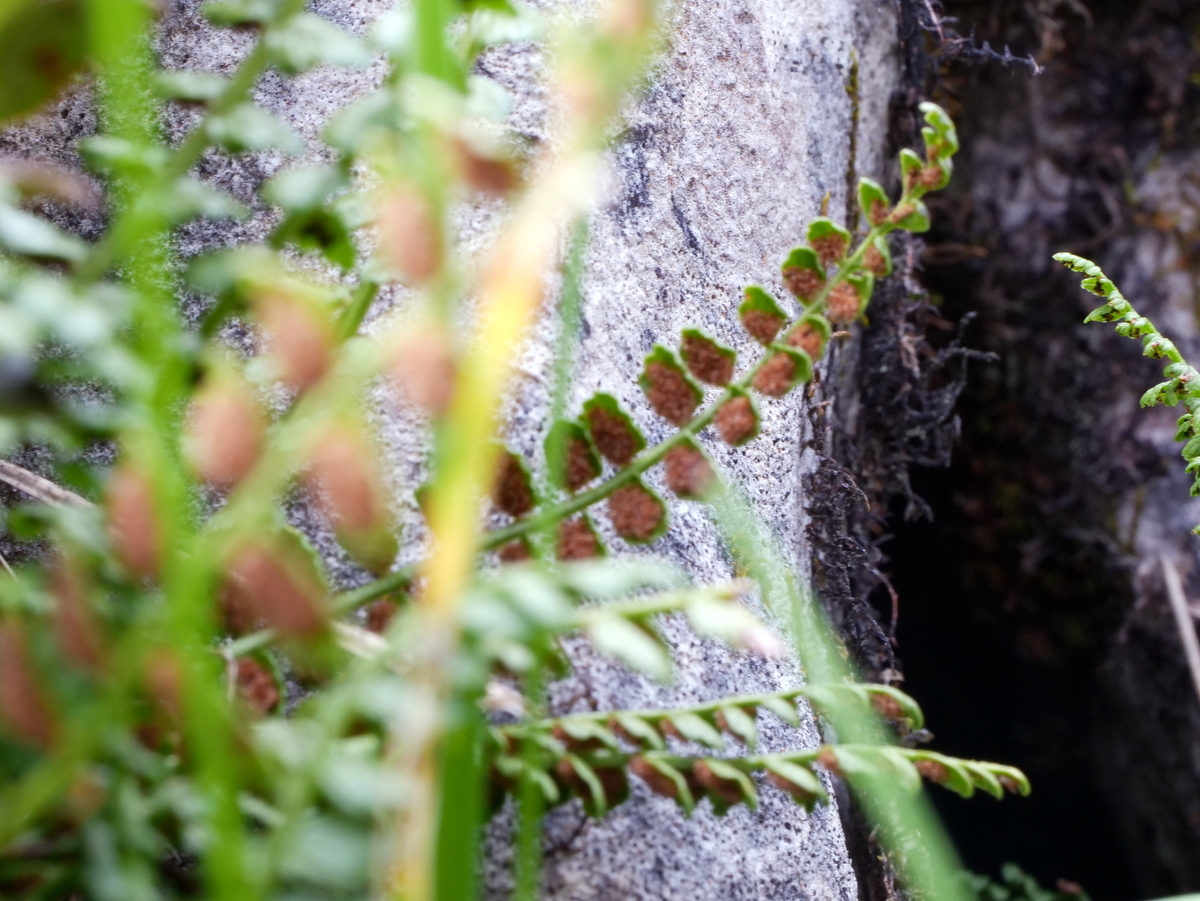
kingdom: Plantae
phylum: Tracheophyta
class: Polypodiopsida
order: Polypodiales
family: Aspleniaceae
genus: Asplenium
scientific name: Asplenium viride
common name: Green spleenwort
